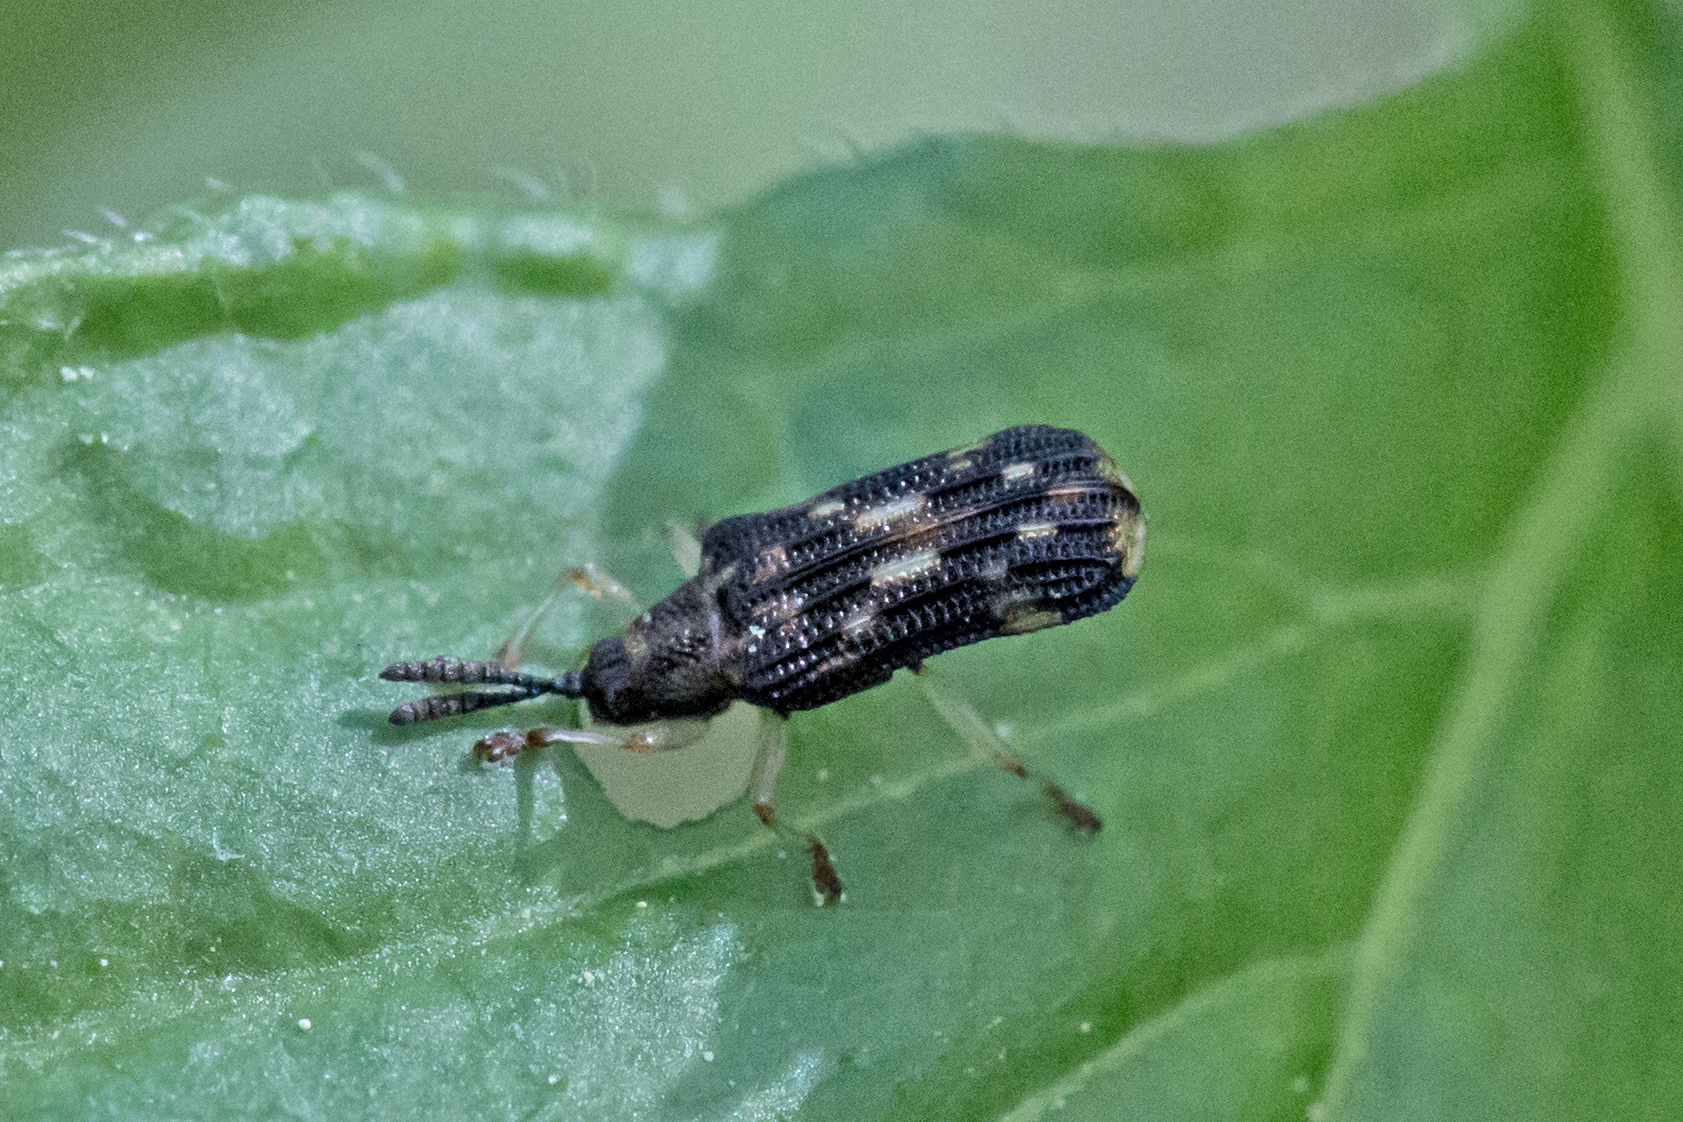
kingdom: Animalia
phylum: Arthropoda
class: Insecta
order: Coleoptera
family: Chrysomelidae
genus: Sumitrosis
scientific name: Sumitrosis inaequalis
